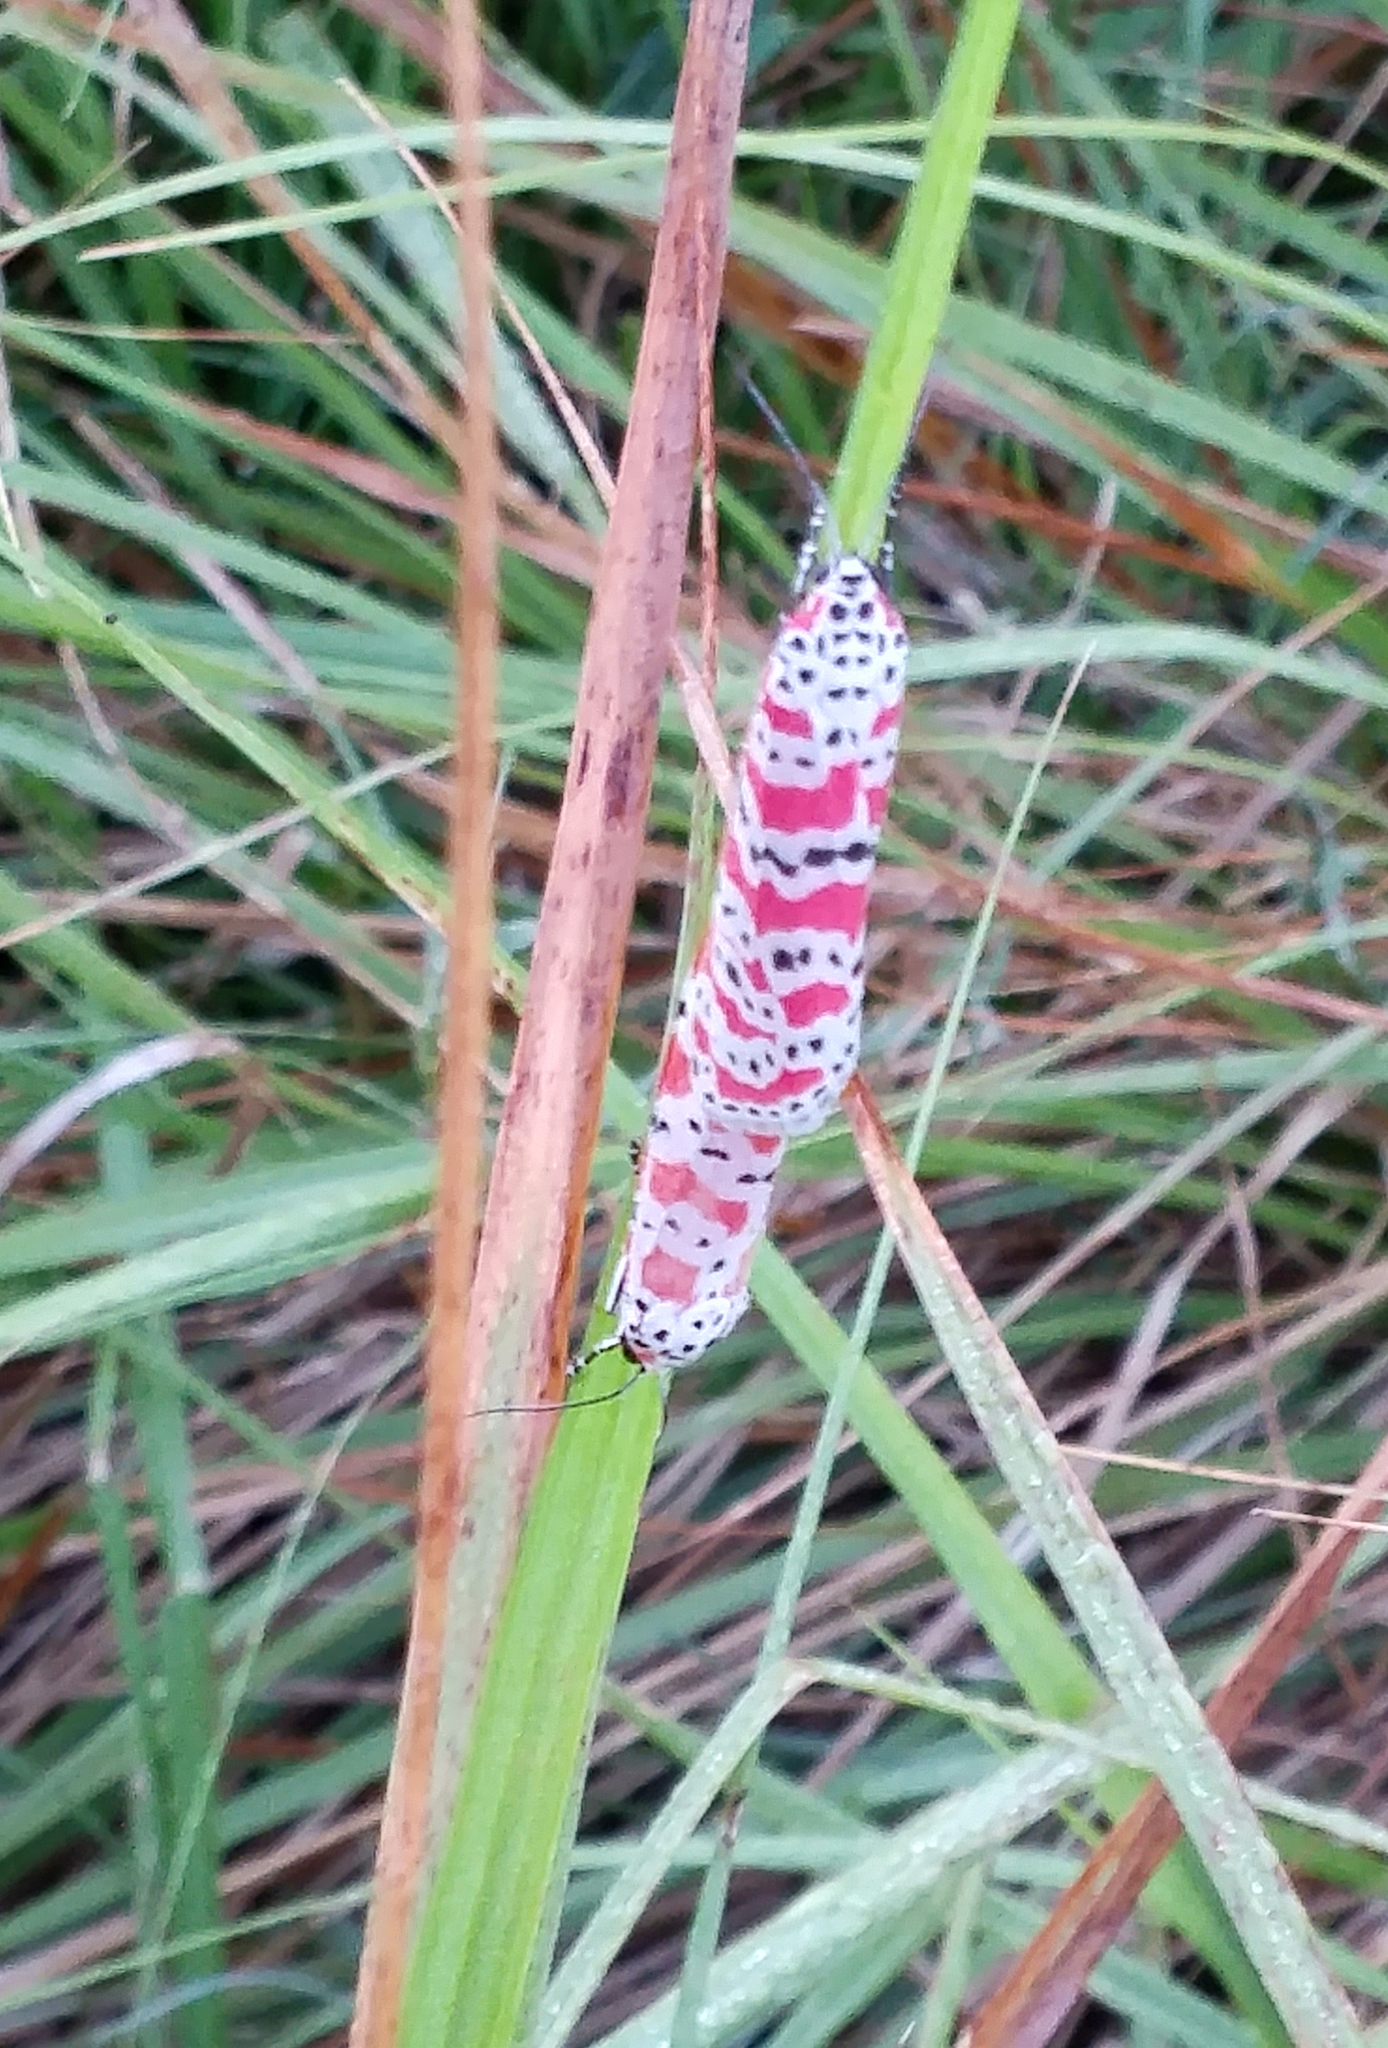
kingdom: Animalia
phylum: Arthropoda
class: Insecta
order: Lepidoptera
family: Erebidae
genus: Utetheisa
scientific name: Utetheisa ornatrix
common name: Beautiful utetheisa
